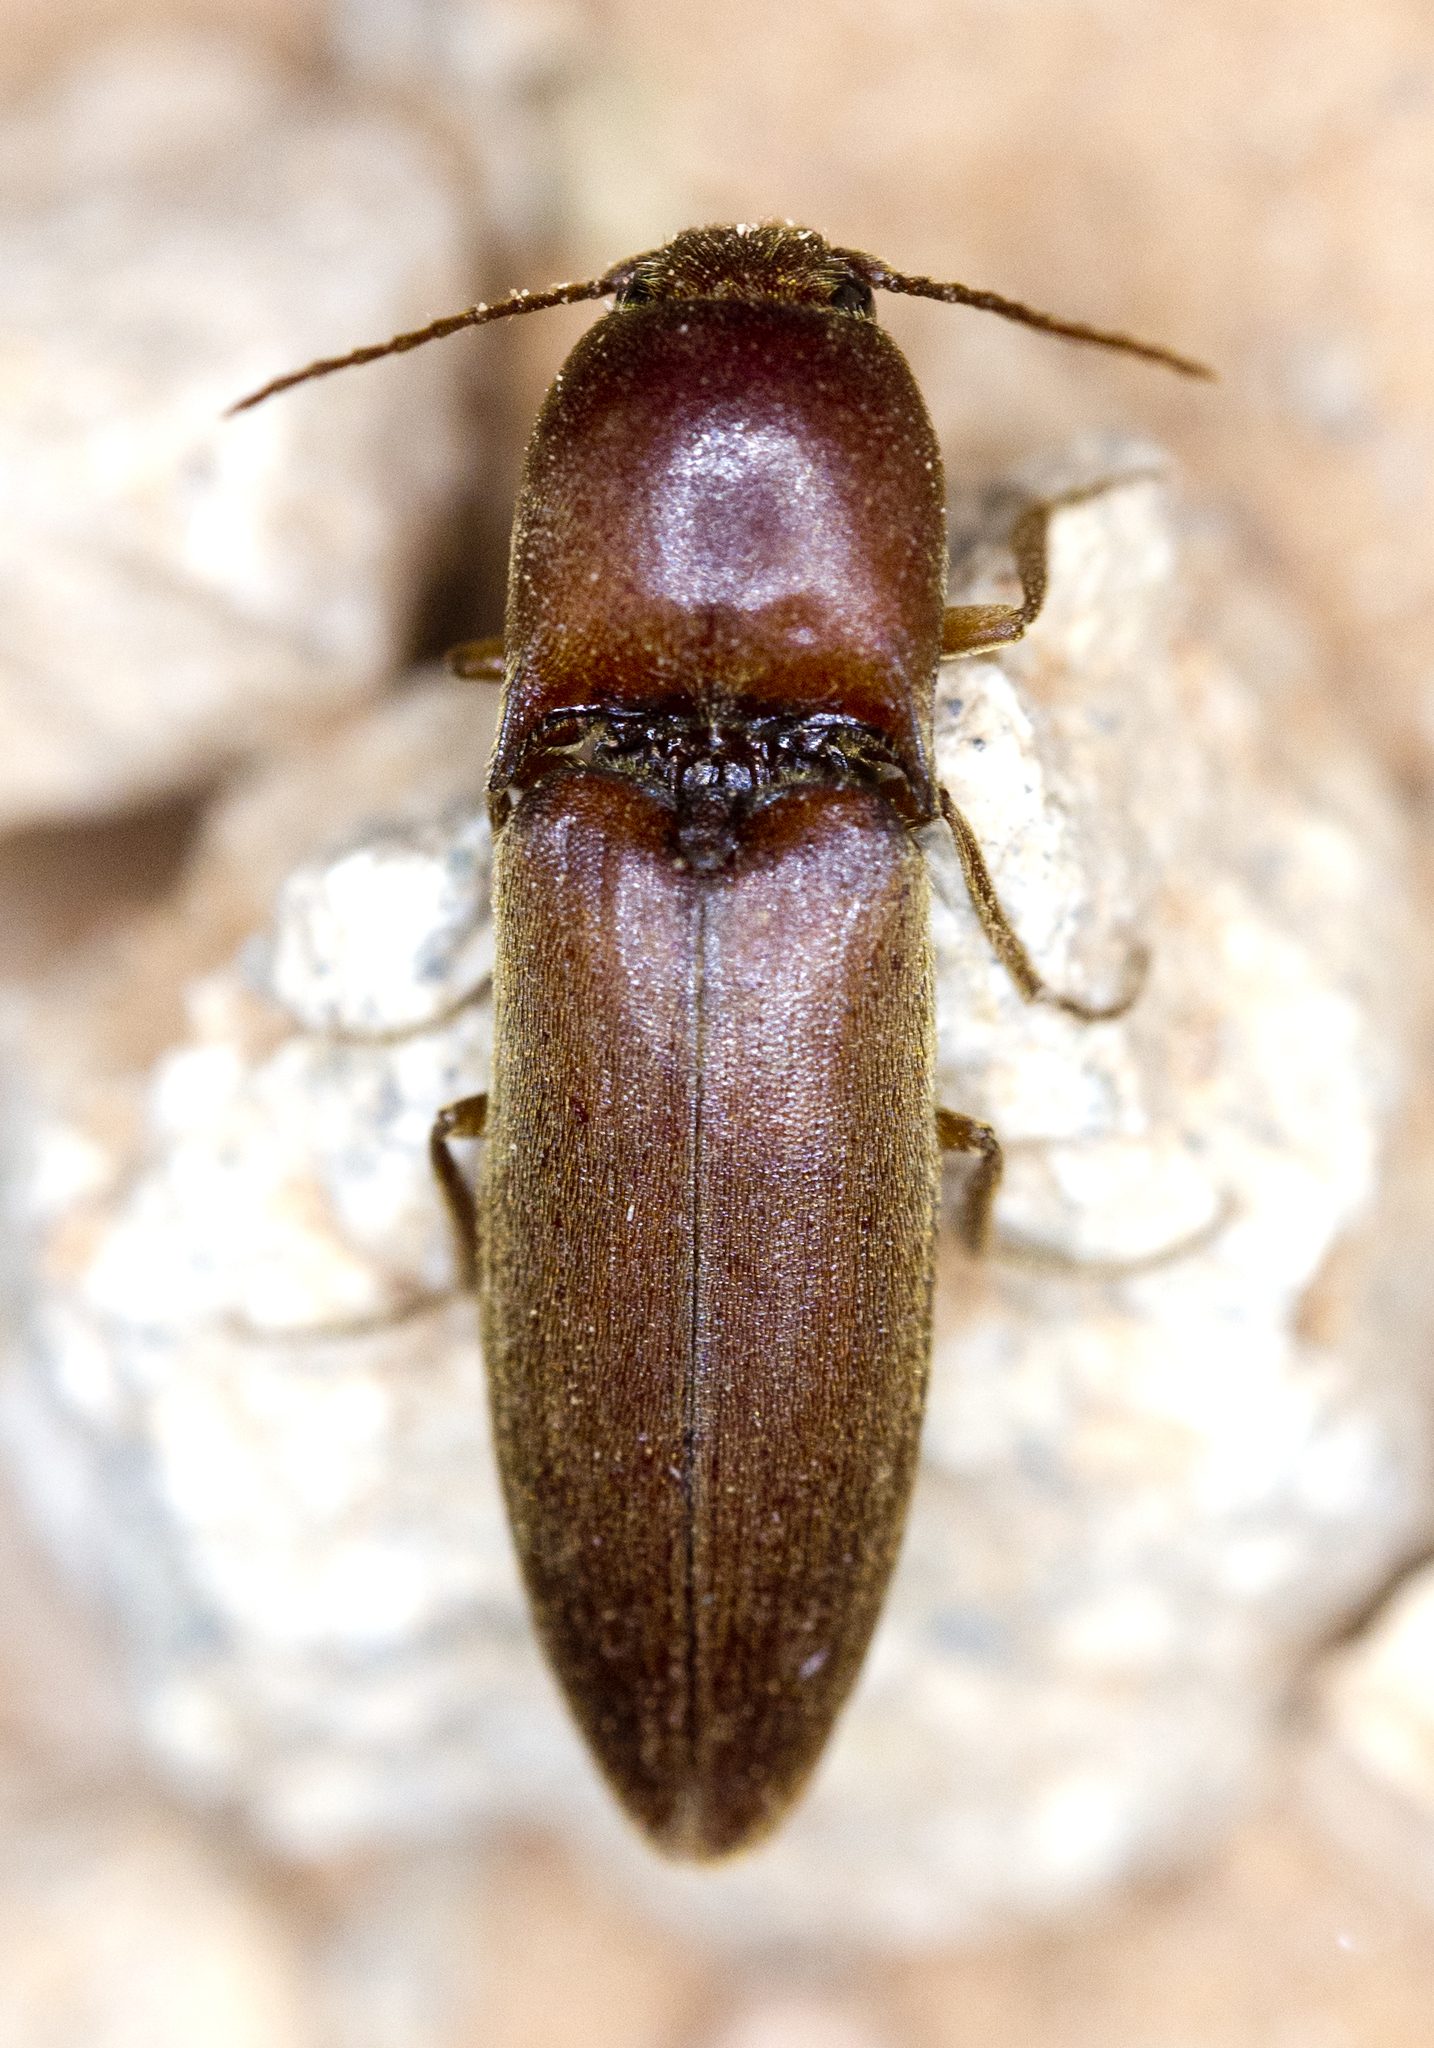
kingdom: Animalia
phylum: Arthropoda
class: Insecta
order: Coleoptera
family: Elateridae
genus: Mulsanteus
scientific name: Mulsanteus
